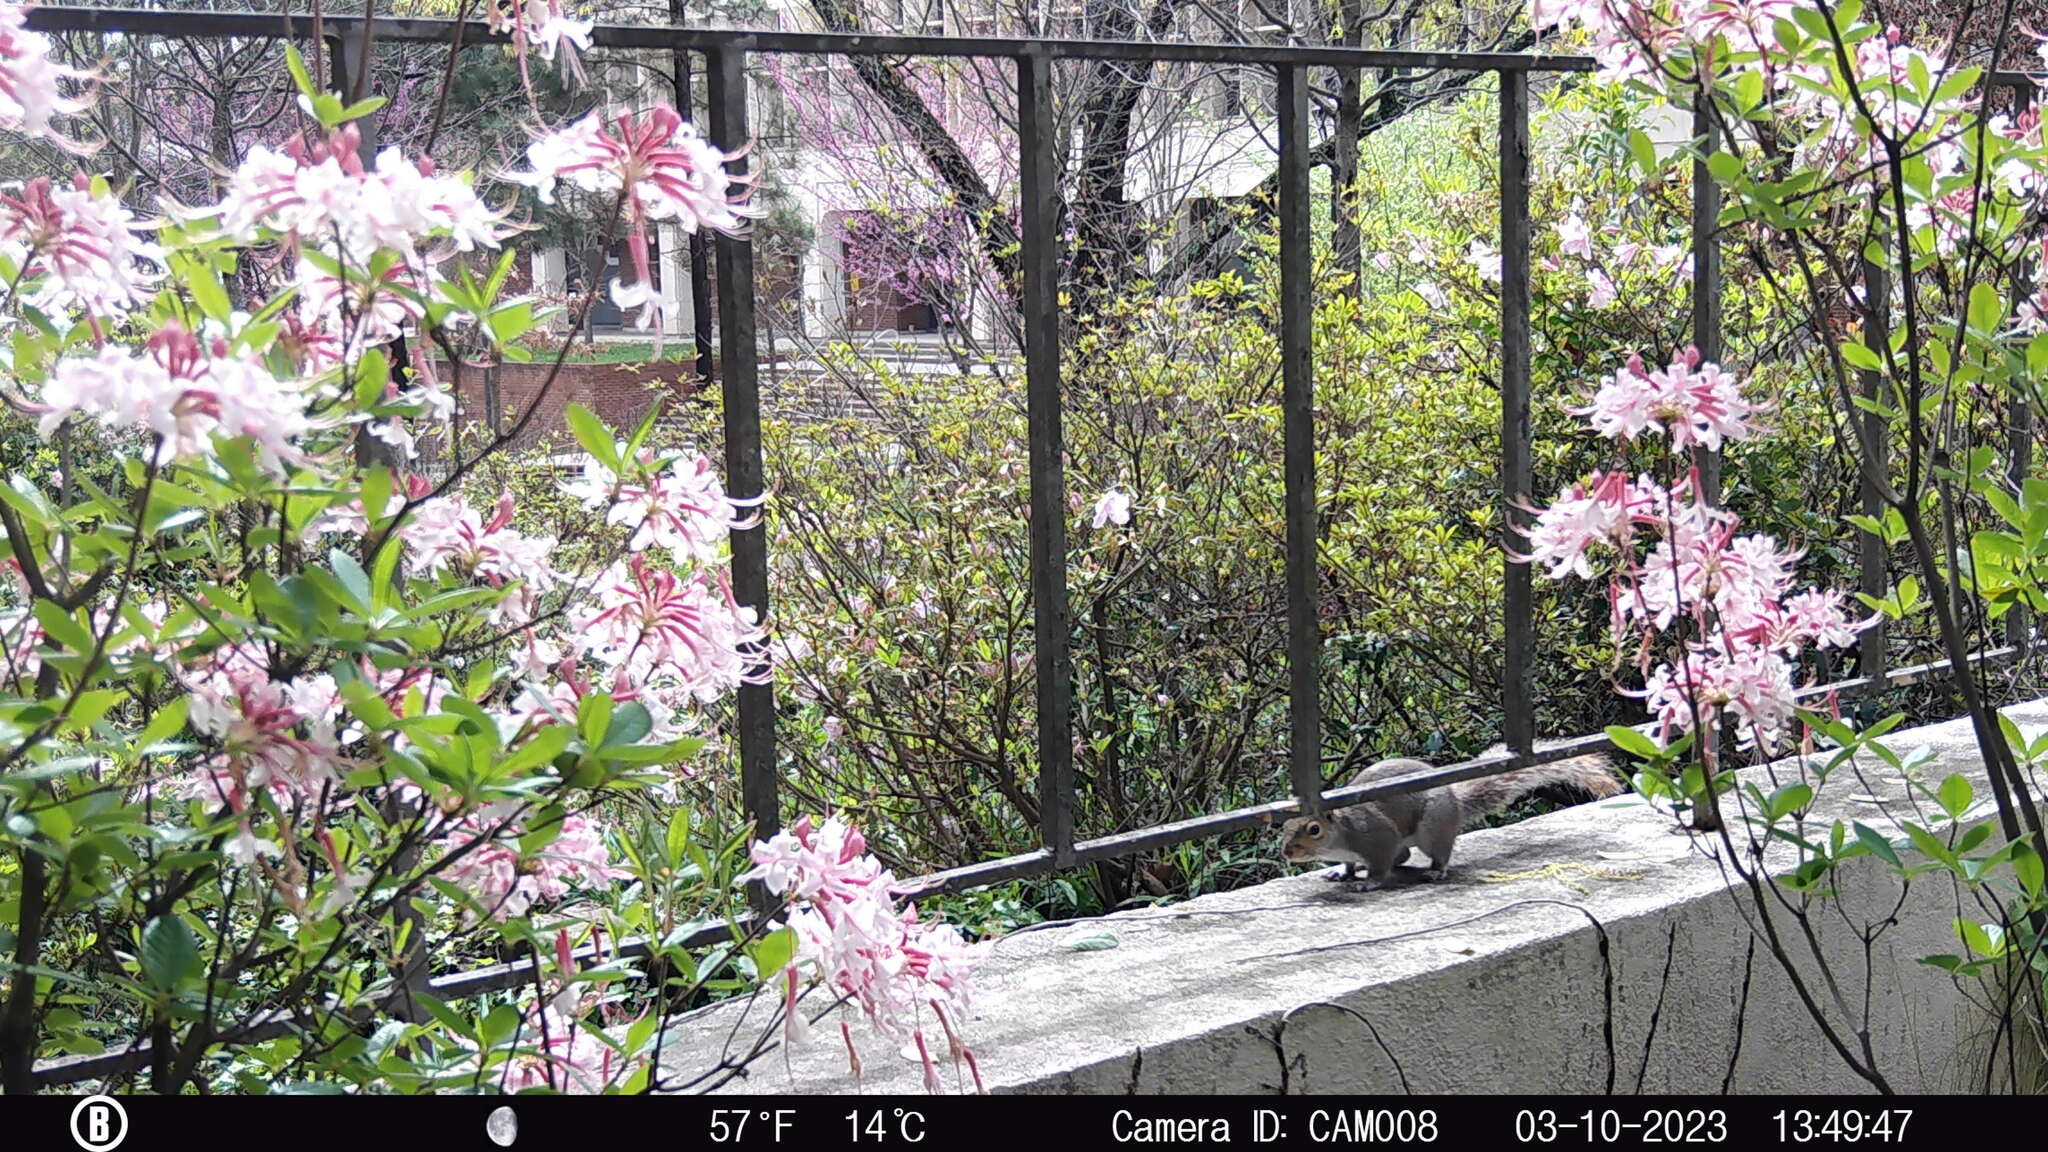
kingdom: Animalia
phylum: Chordata
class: Mammalia
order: Rodentia
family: Sciuridae
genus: Sciurus
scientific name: Sciurus carolinensis
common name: Eastern gray squirrel
